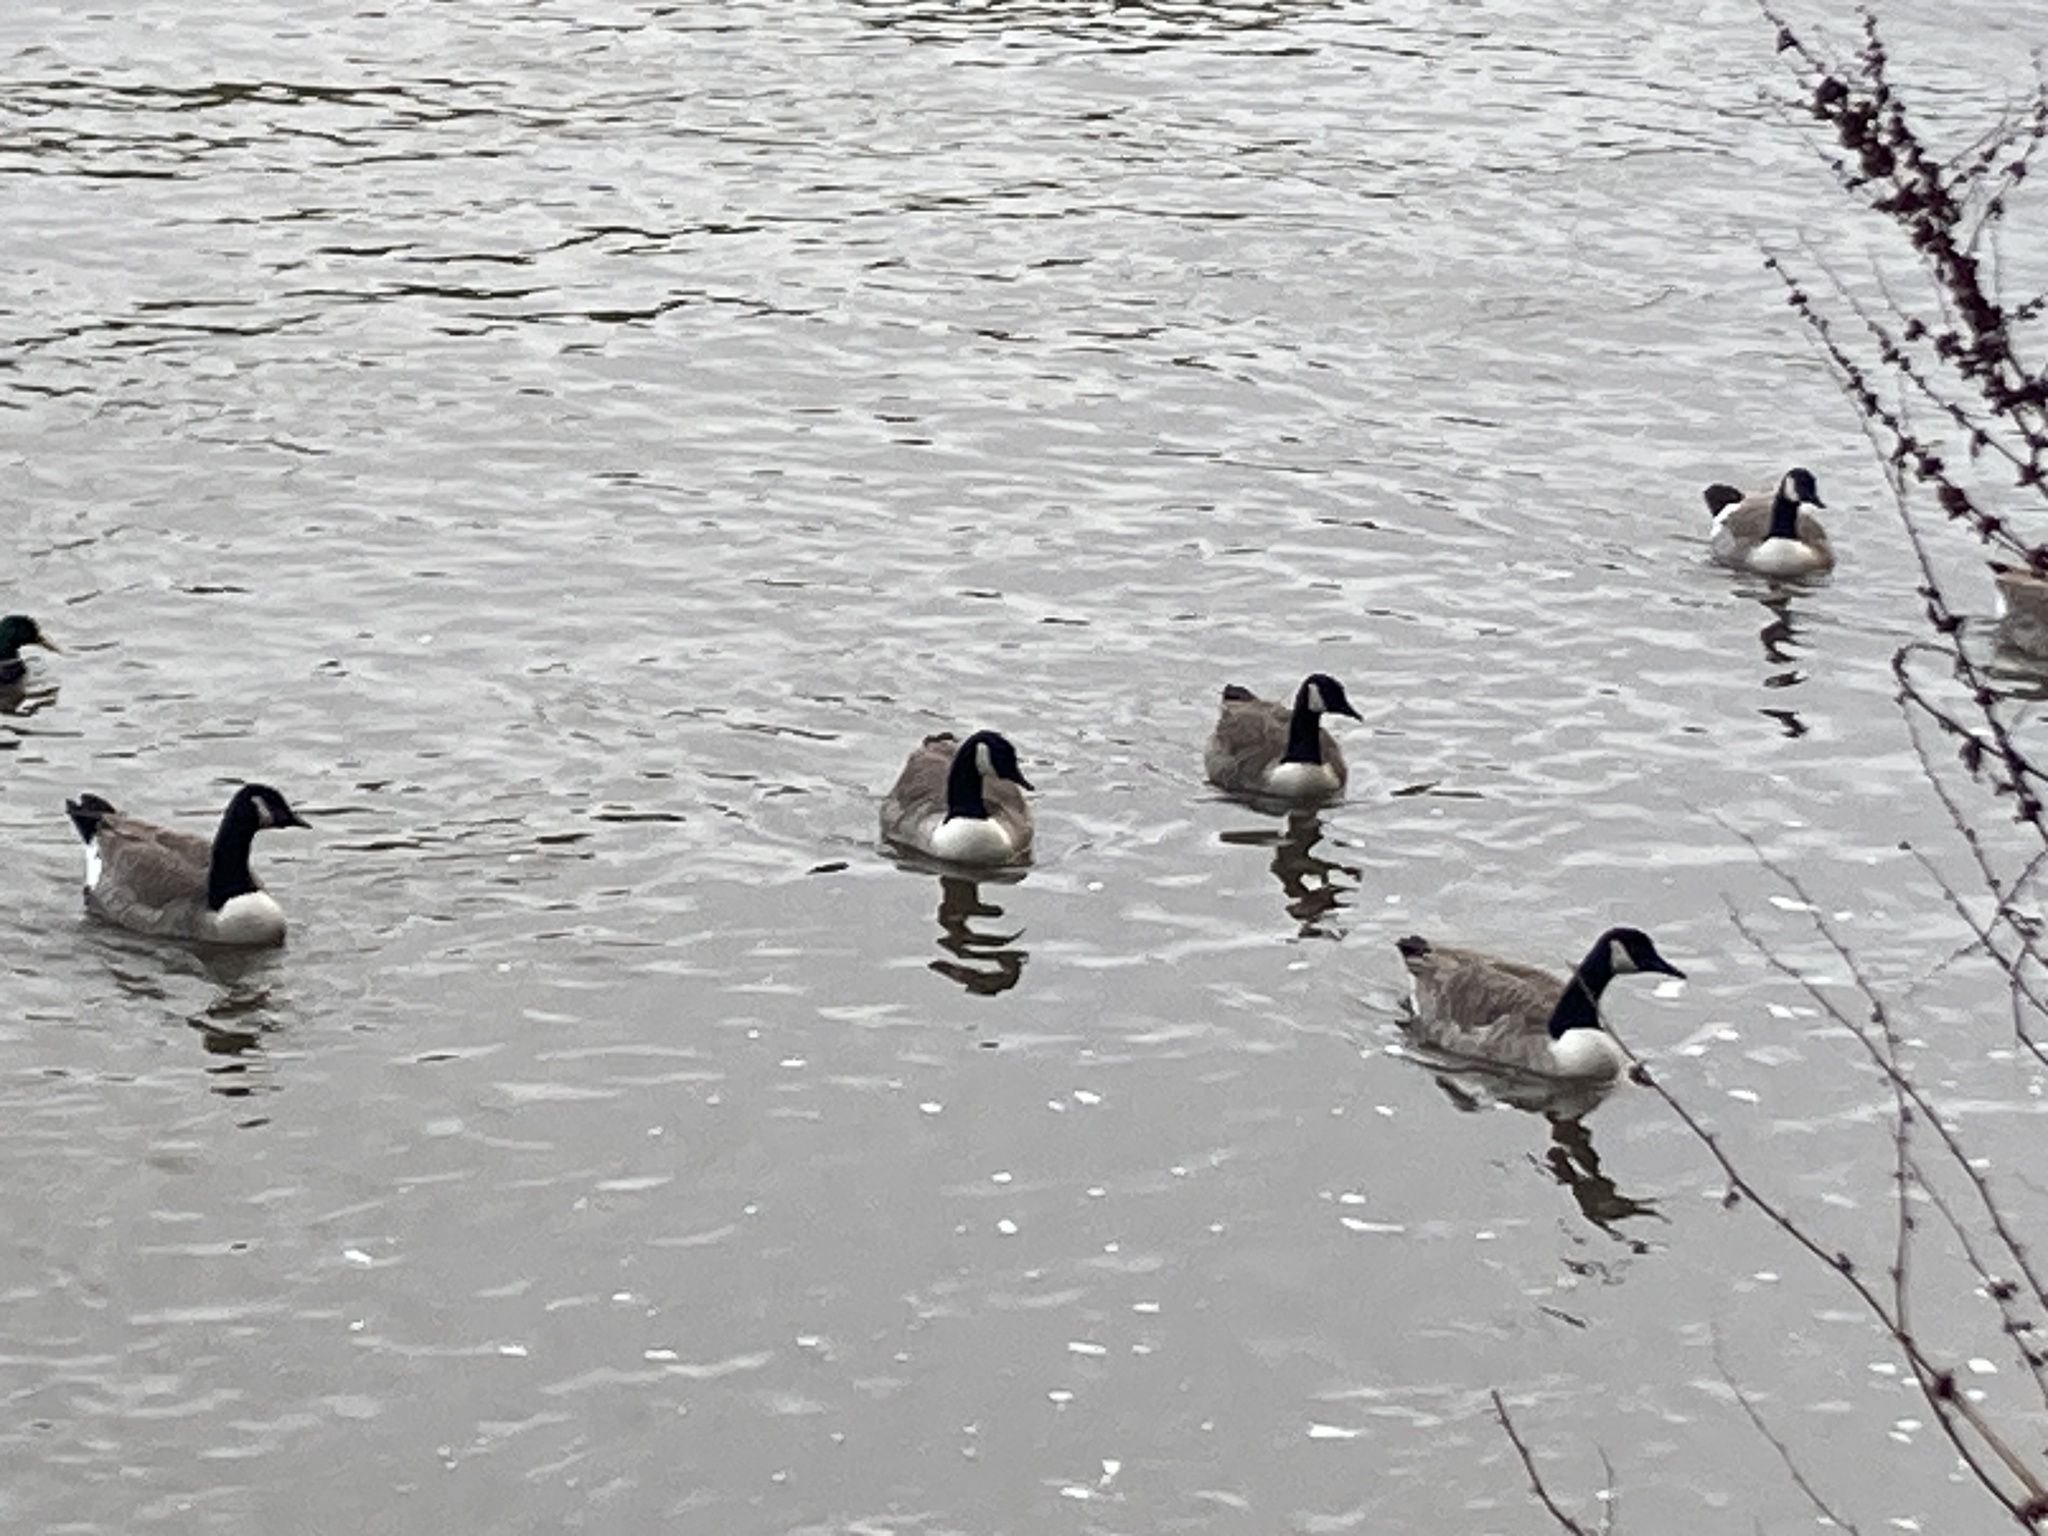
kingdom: Animalia
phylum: Chordata
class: Aves
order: Anseriformes
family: Anatidae
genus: Branta
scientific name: Branta canadensis
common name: Canada goose
